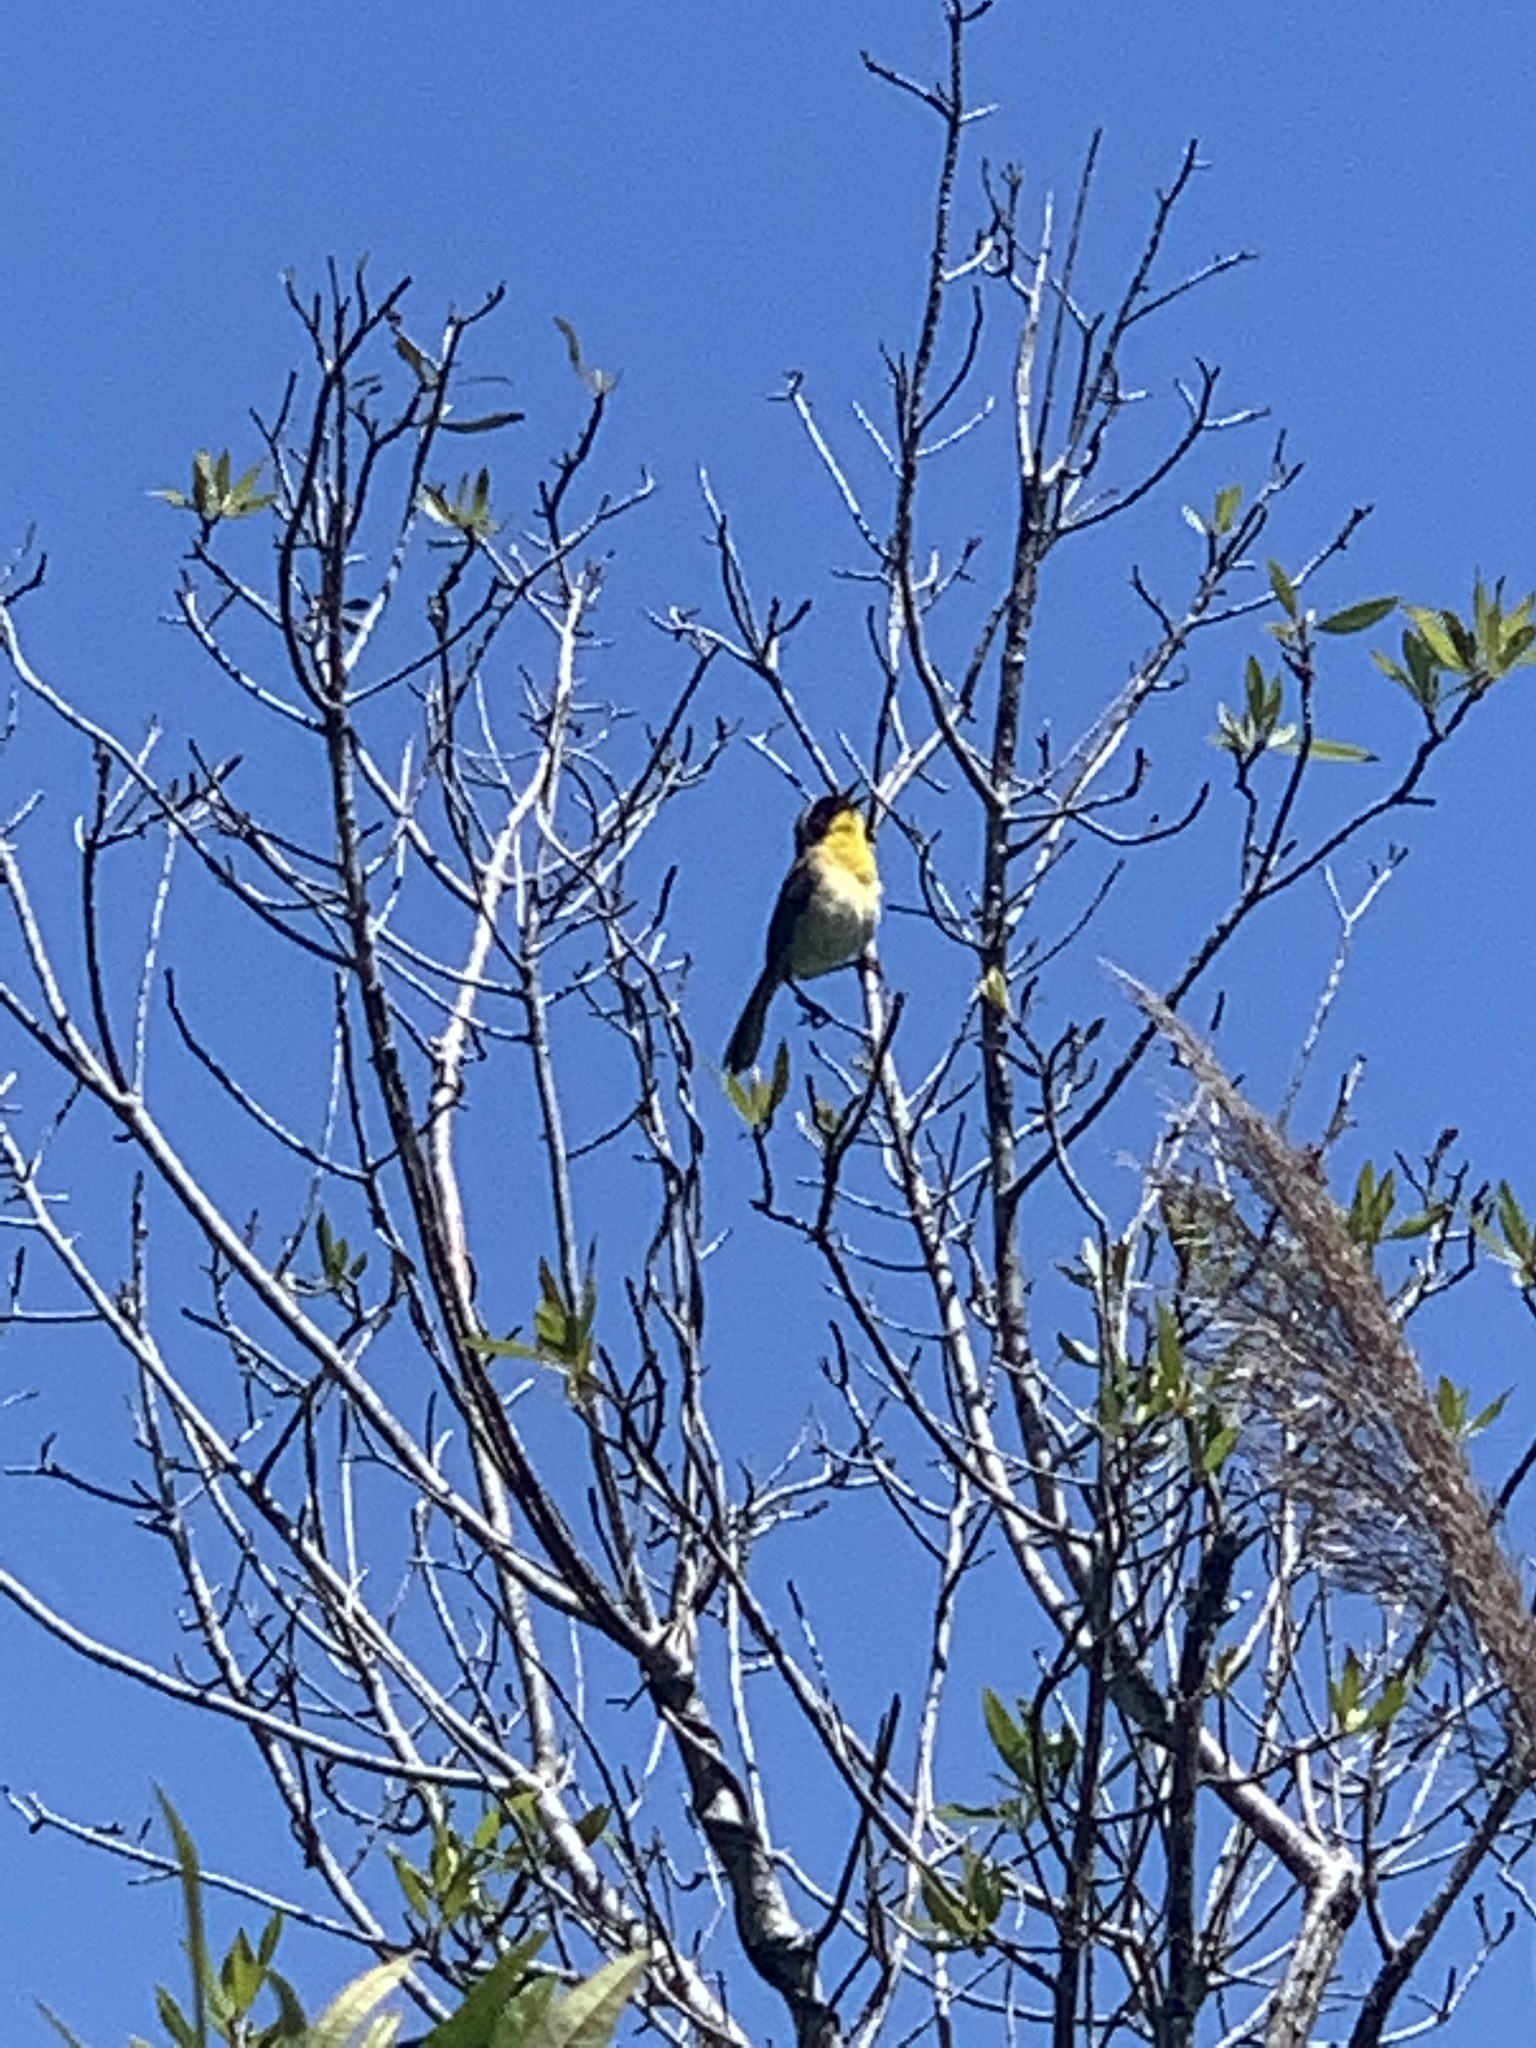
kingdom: Animalia
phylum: Chordata
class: Aves
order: Passeriformes
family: Parulidae
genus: Geothlypis
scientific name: Geothlypis trichas
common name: Common yellowthroat
